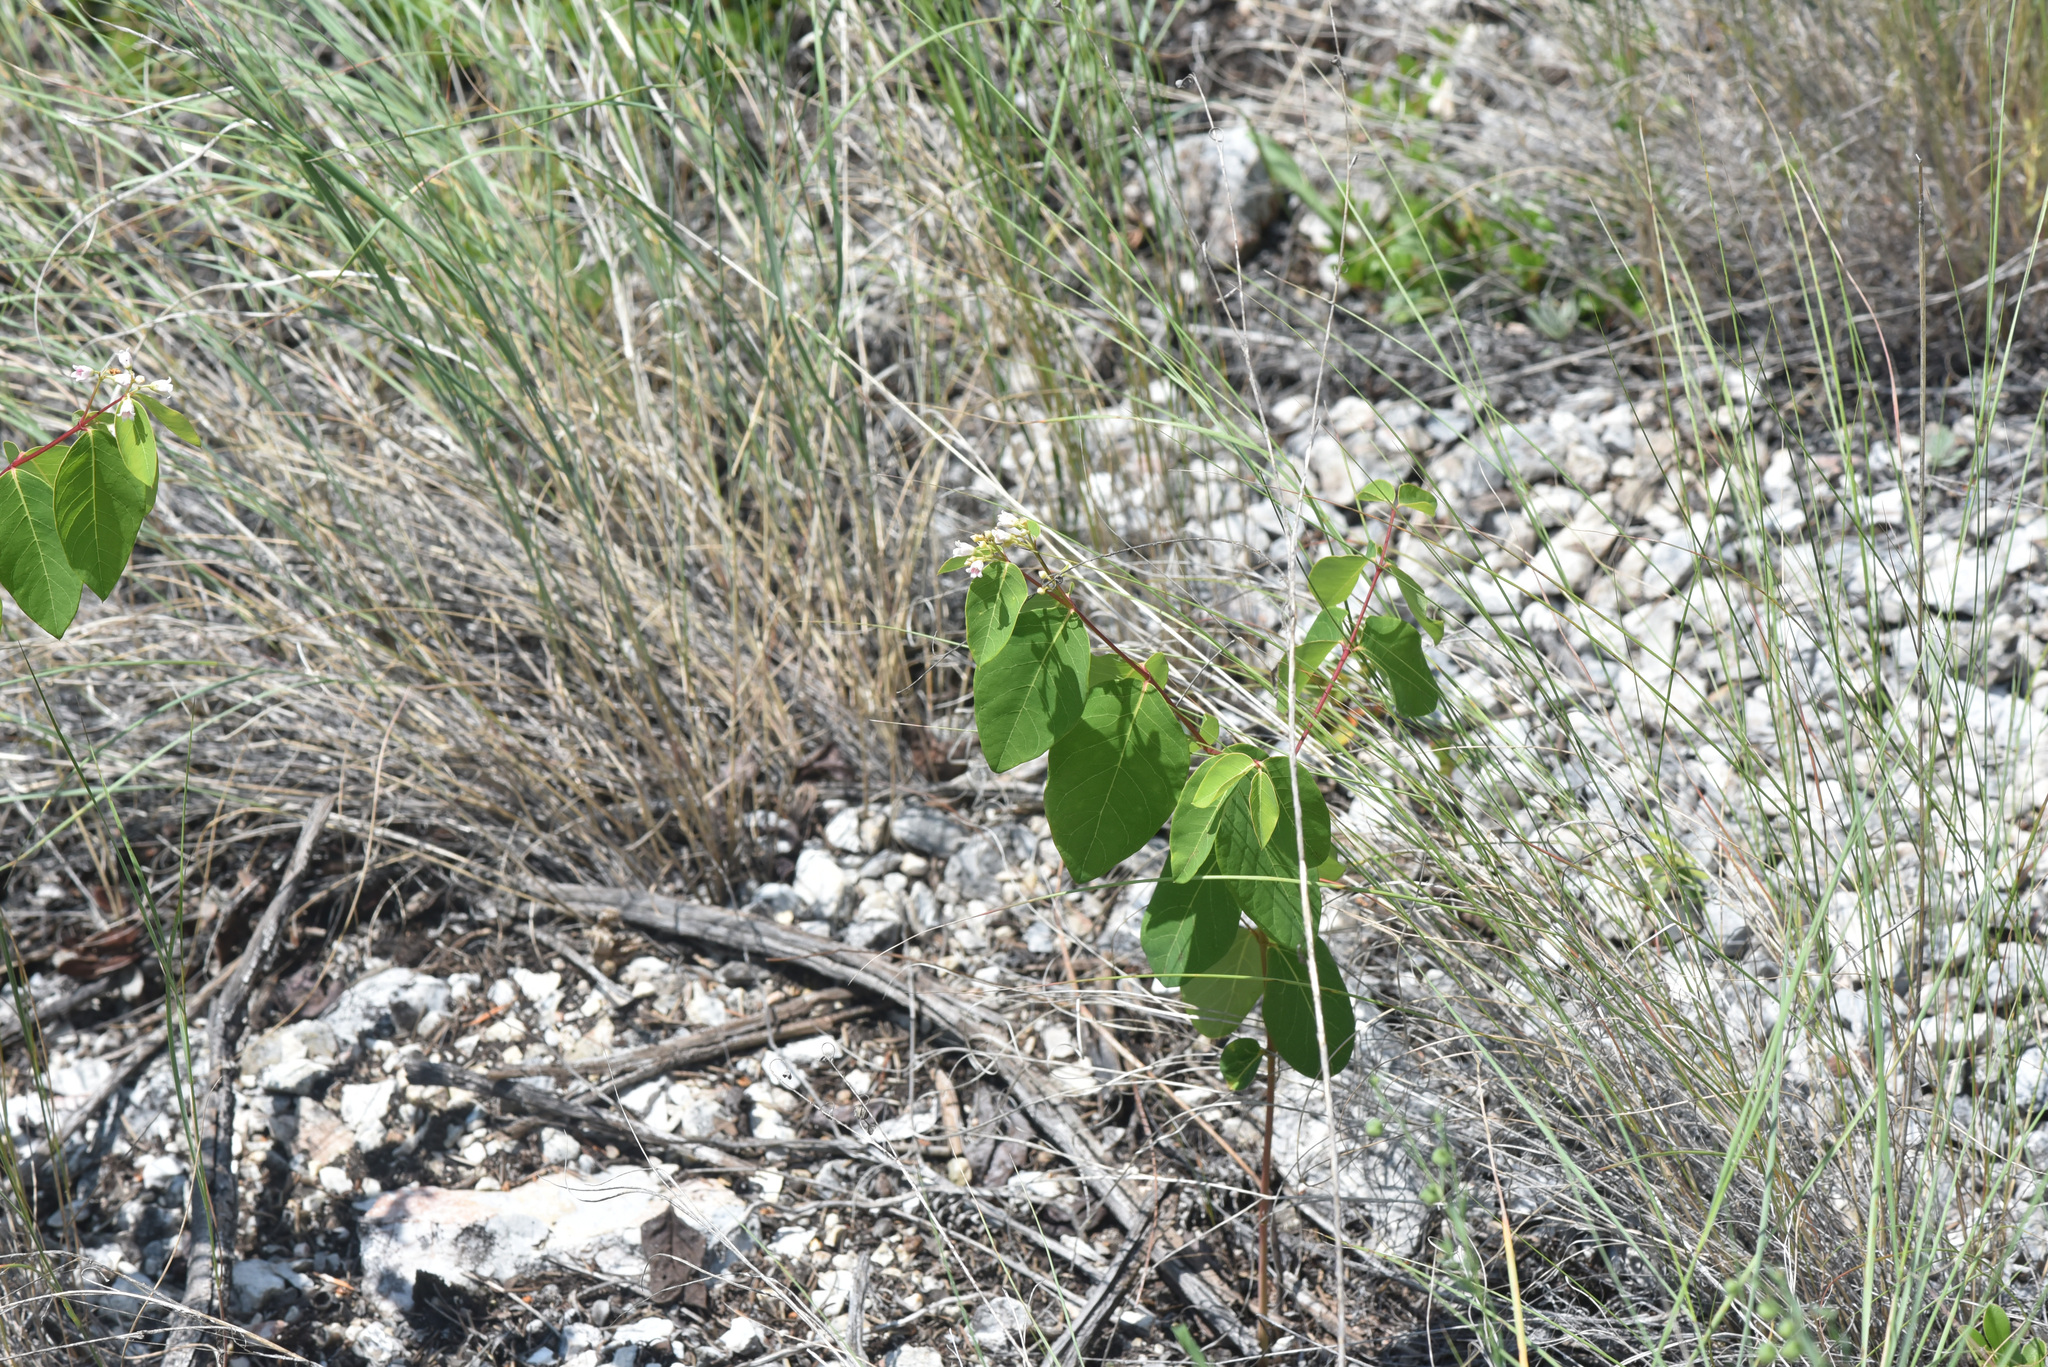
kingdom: Plantae
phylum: Tracheophyta
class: Magnoliopsida
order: Gentianales
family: Apocynaceae
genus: Apocynum
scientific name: Apocynum androsaemifolium
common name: Spreading dogbane
